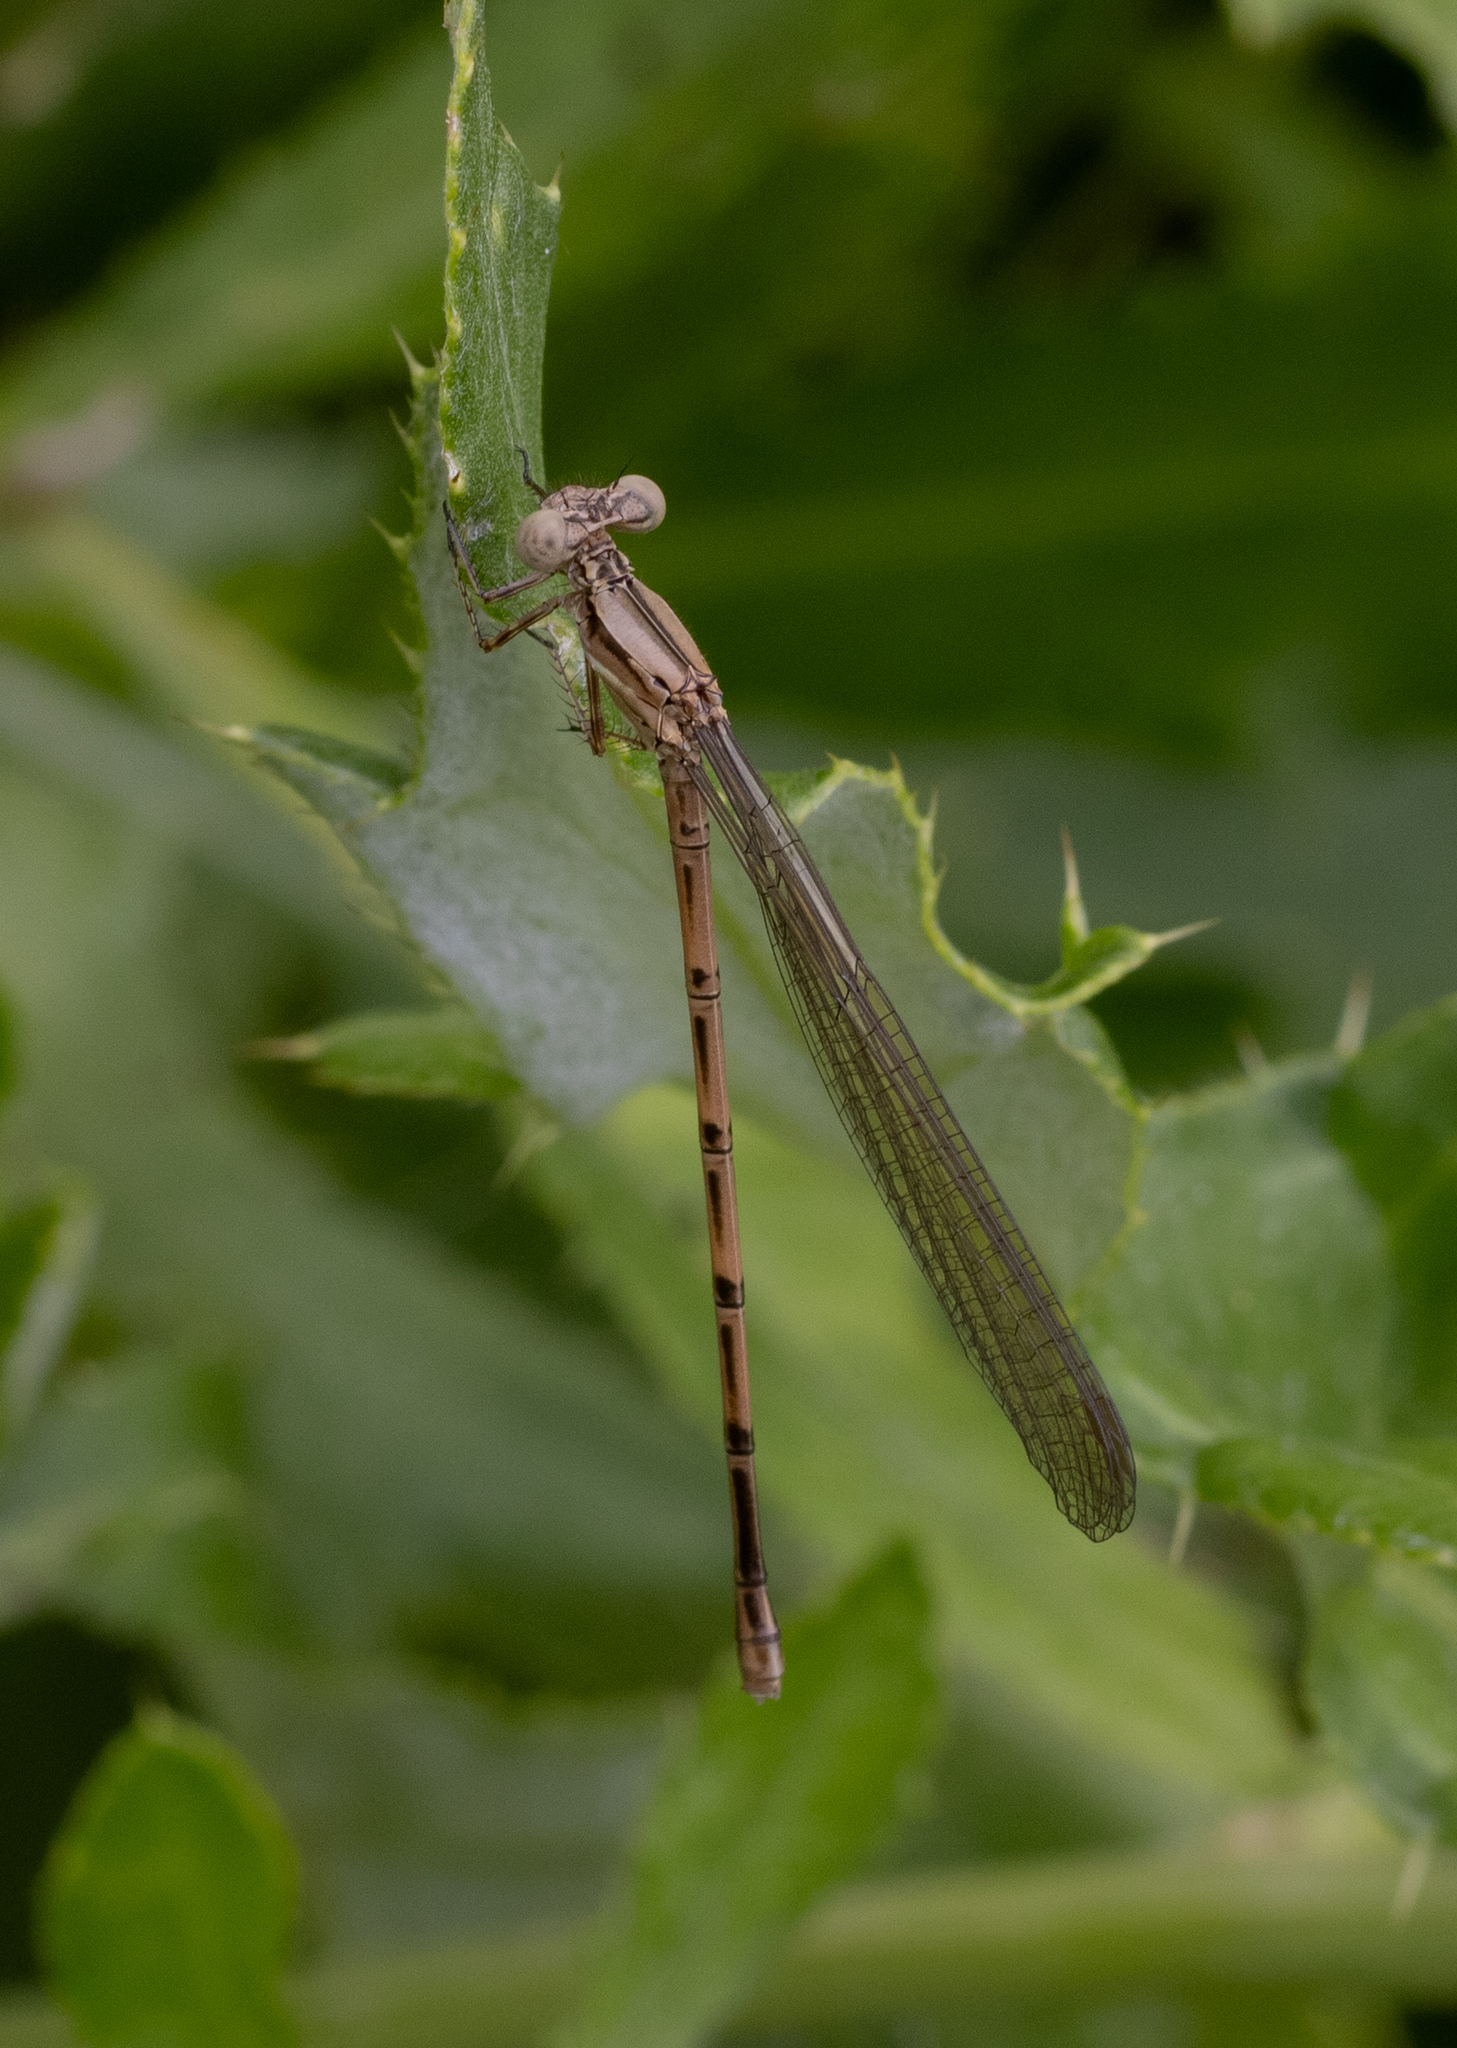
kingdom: Animalia
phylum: Arthropoda
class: Insecta
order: Odonata
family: Coenagrionidae
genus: Argia
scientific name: Argia fumipennis
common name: Variable dancer
